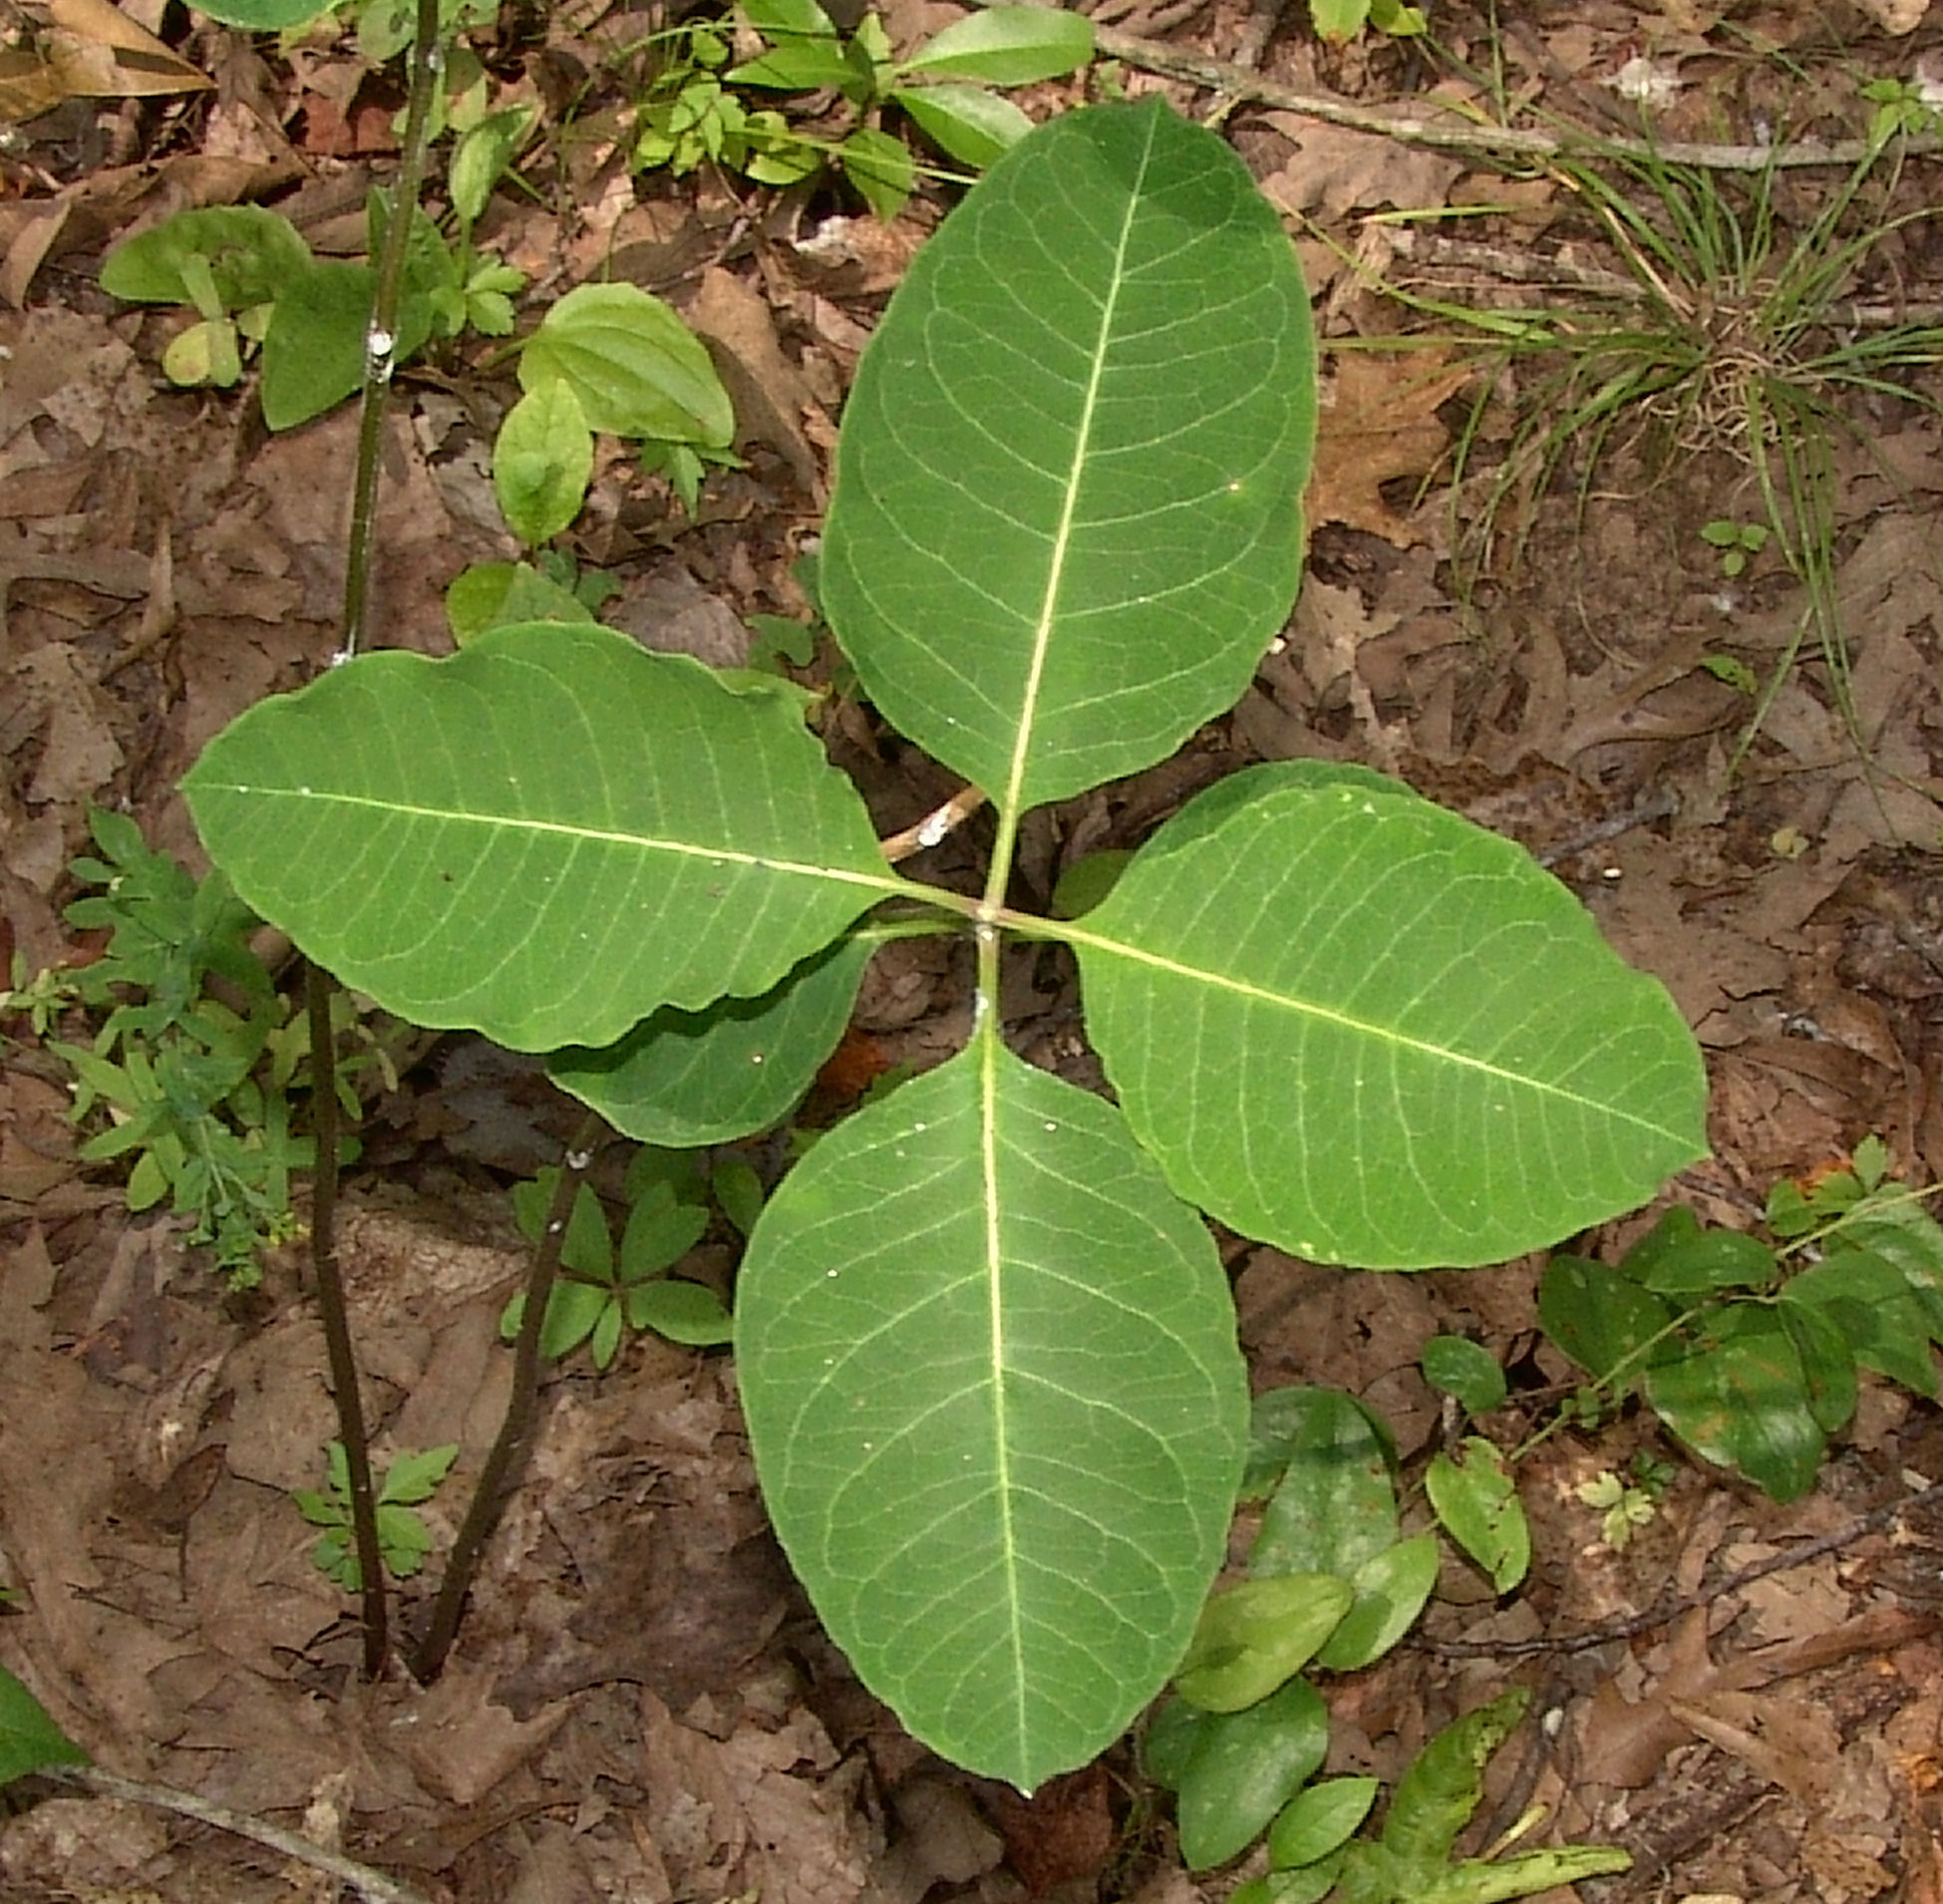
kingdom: Plantae
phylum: Tracheophyta
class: Magnoliopsida
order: Gentianales
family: Apocynaceae
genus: Asclepias
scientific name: Asclepias variegata
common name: Variegated milkweed
